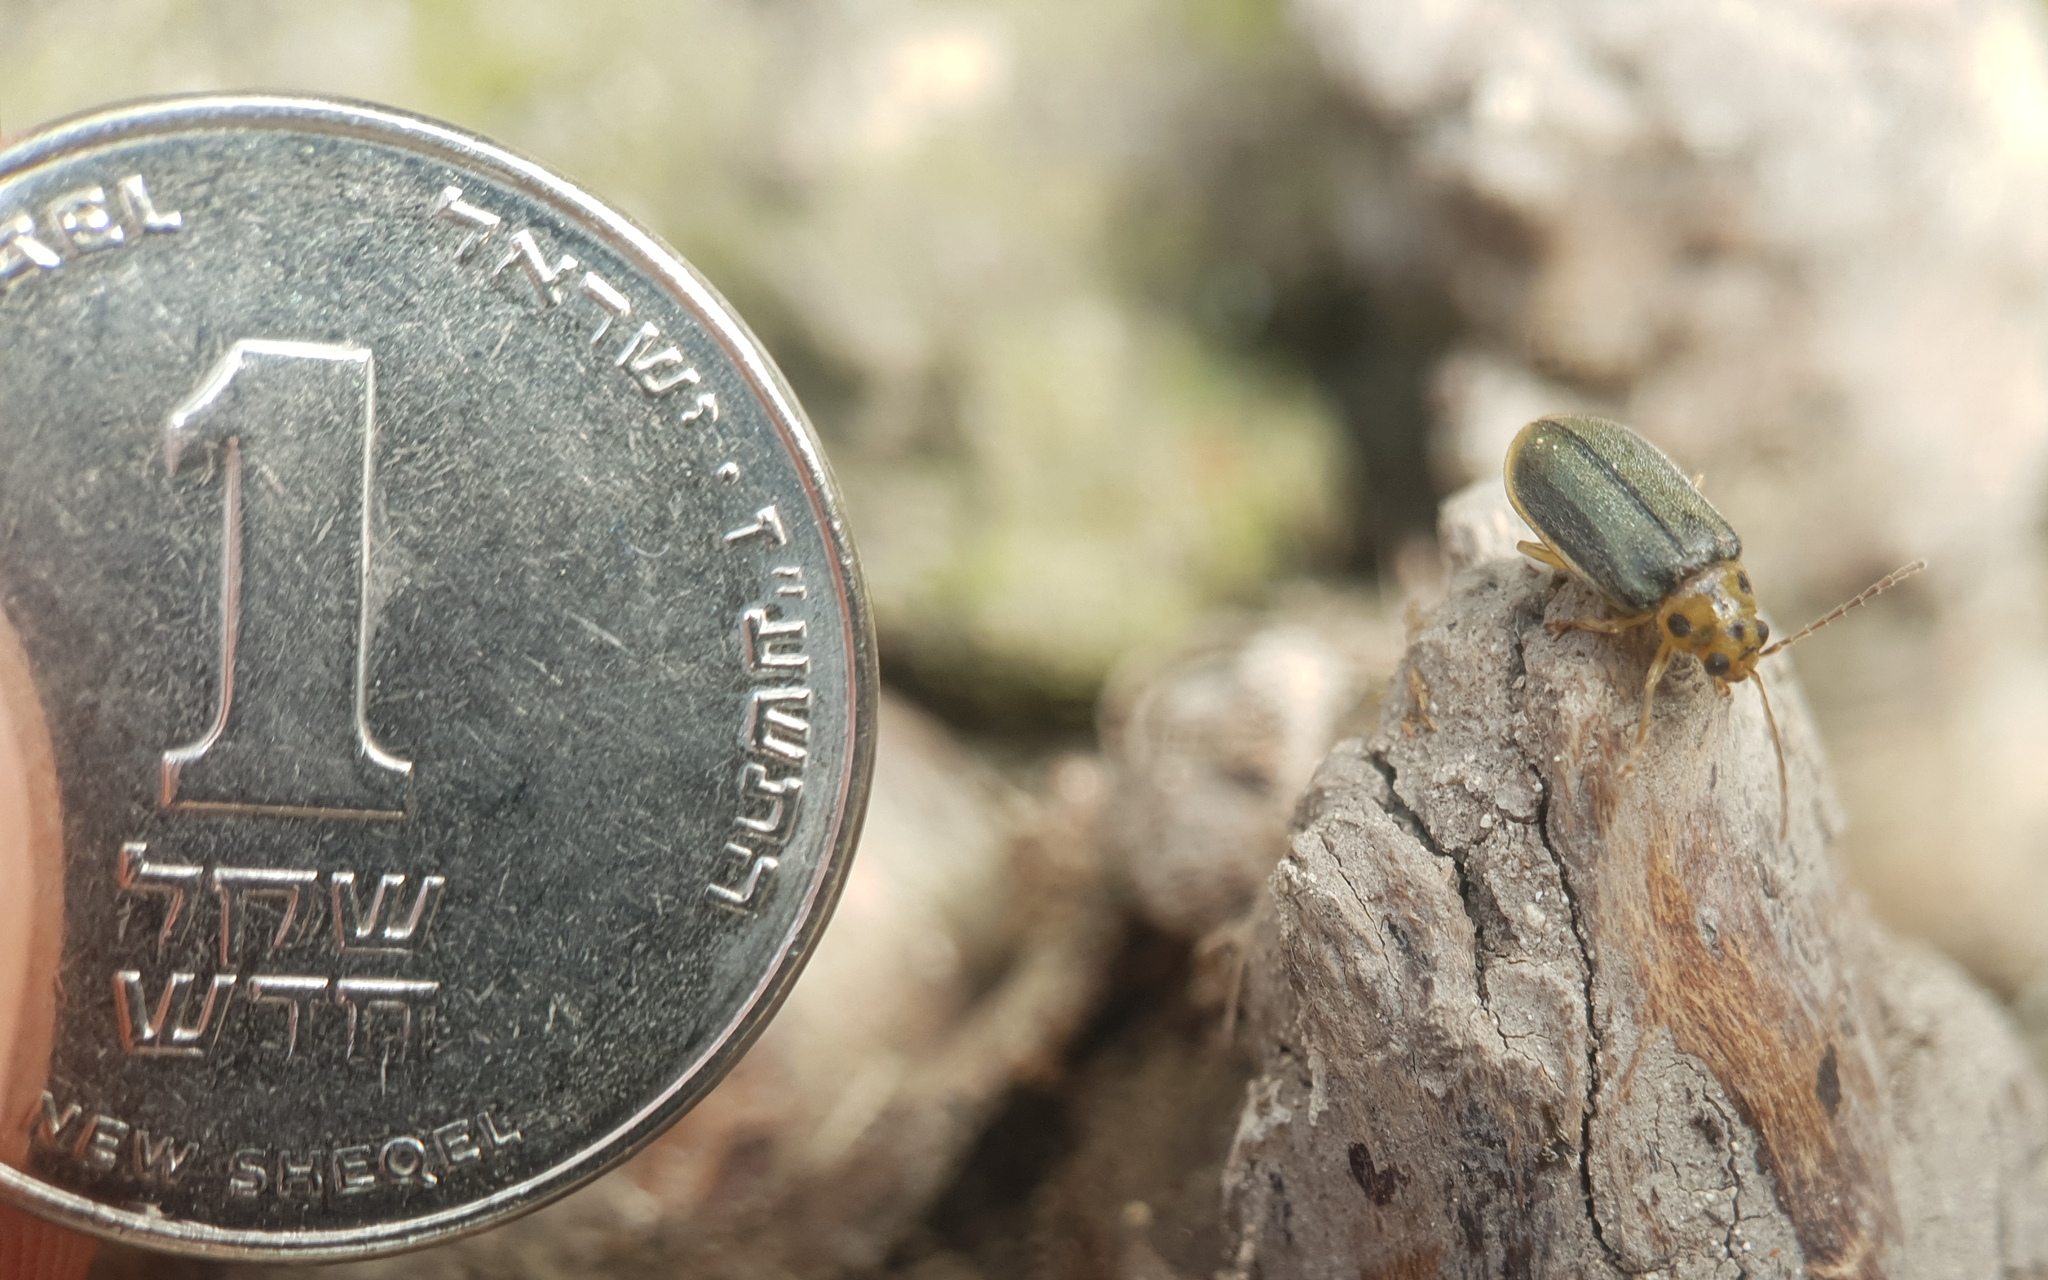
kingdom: Animalia
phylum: Arthropoda
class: Insecta
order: Coleoptera
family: Chrysomelidae
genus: Xanthogaleruca
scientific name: Xanthogaleruca luteola
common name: Elm leaf beetle
